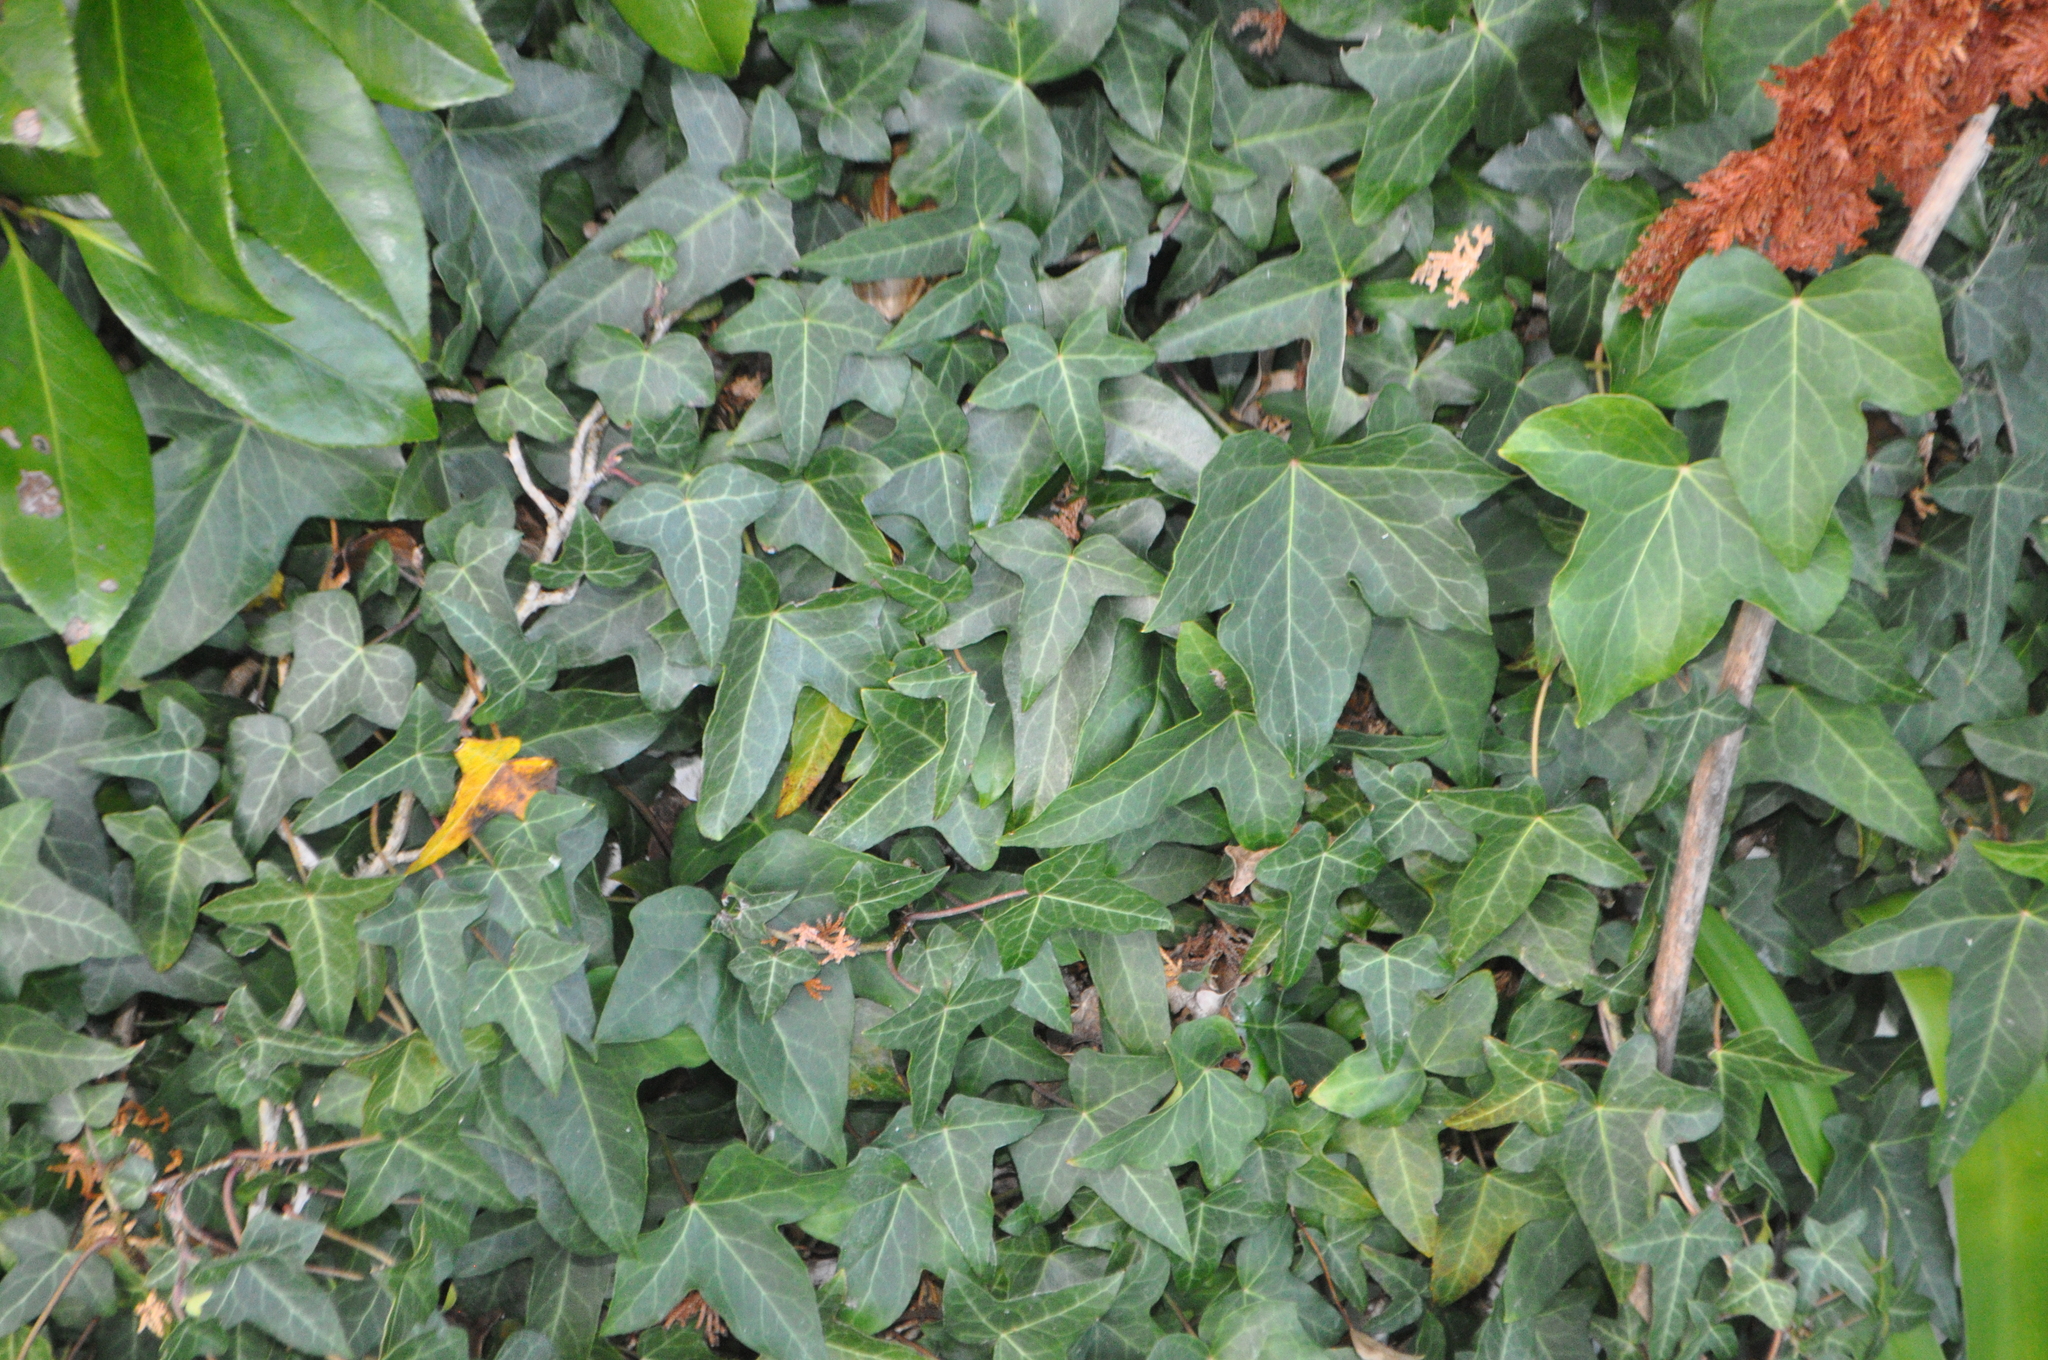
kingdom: Plantae
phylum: Tracheophyta
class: Magnoliopsida
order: Apiales
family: Araliaceae
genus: Hedera
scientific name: Hedera helix
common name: Ivy
